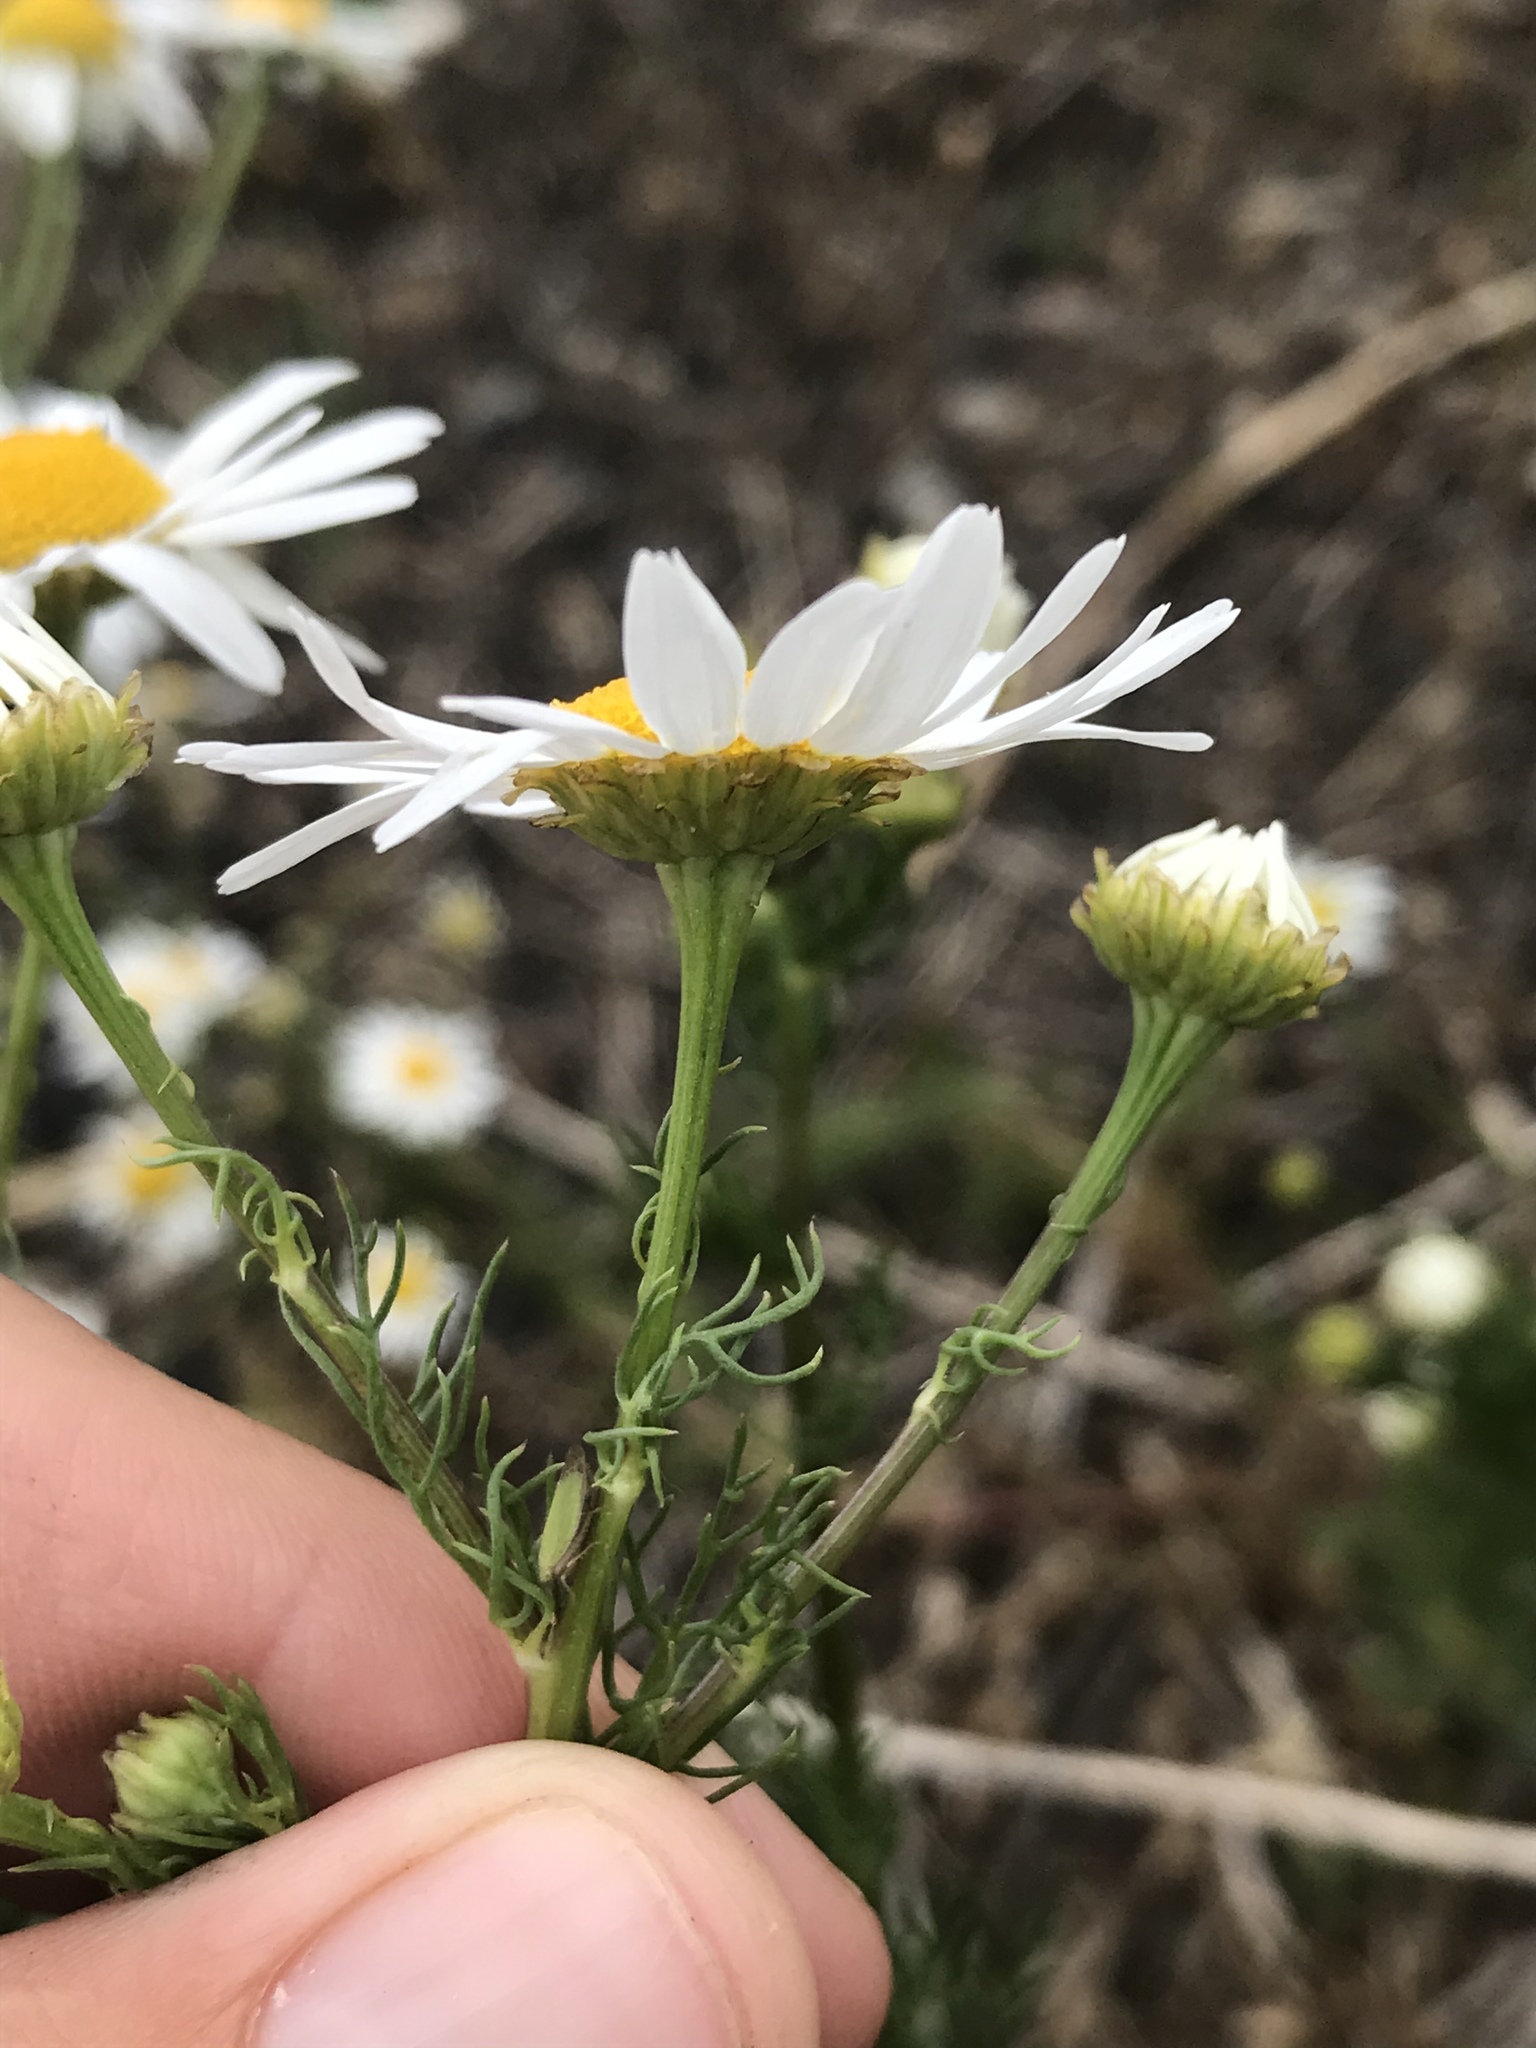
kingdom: Plantae
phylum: Tracheophyta
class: Magnoliopsida
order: Asterales
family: Asteraceae
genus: Tripleurospermum
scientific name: Tripleurospermum inodorum
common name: Scentless mayweed
